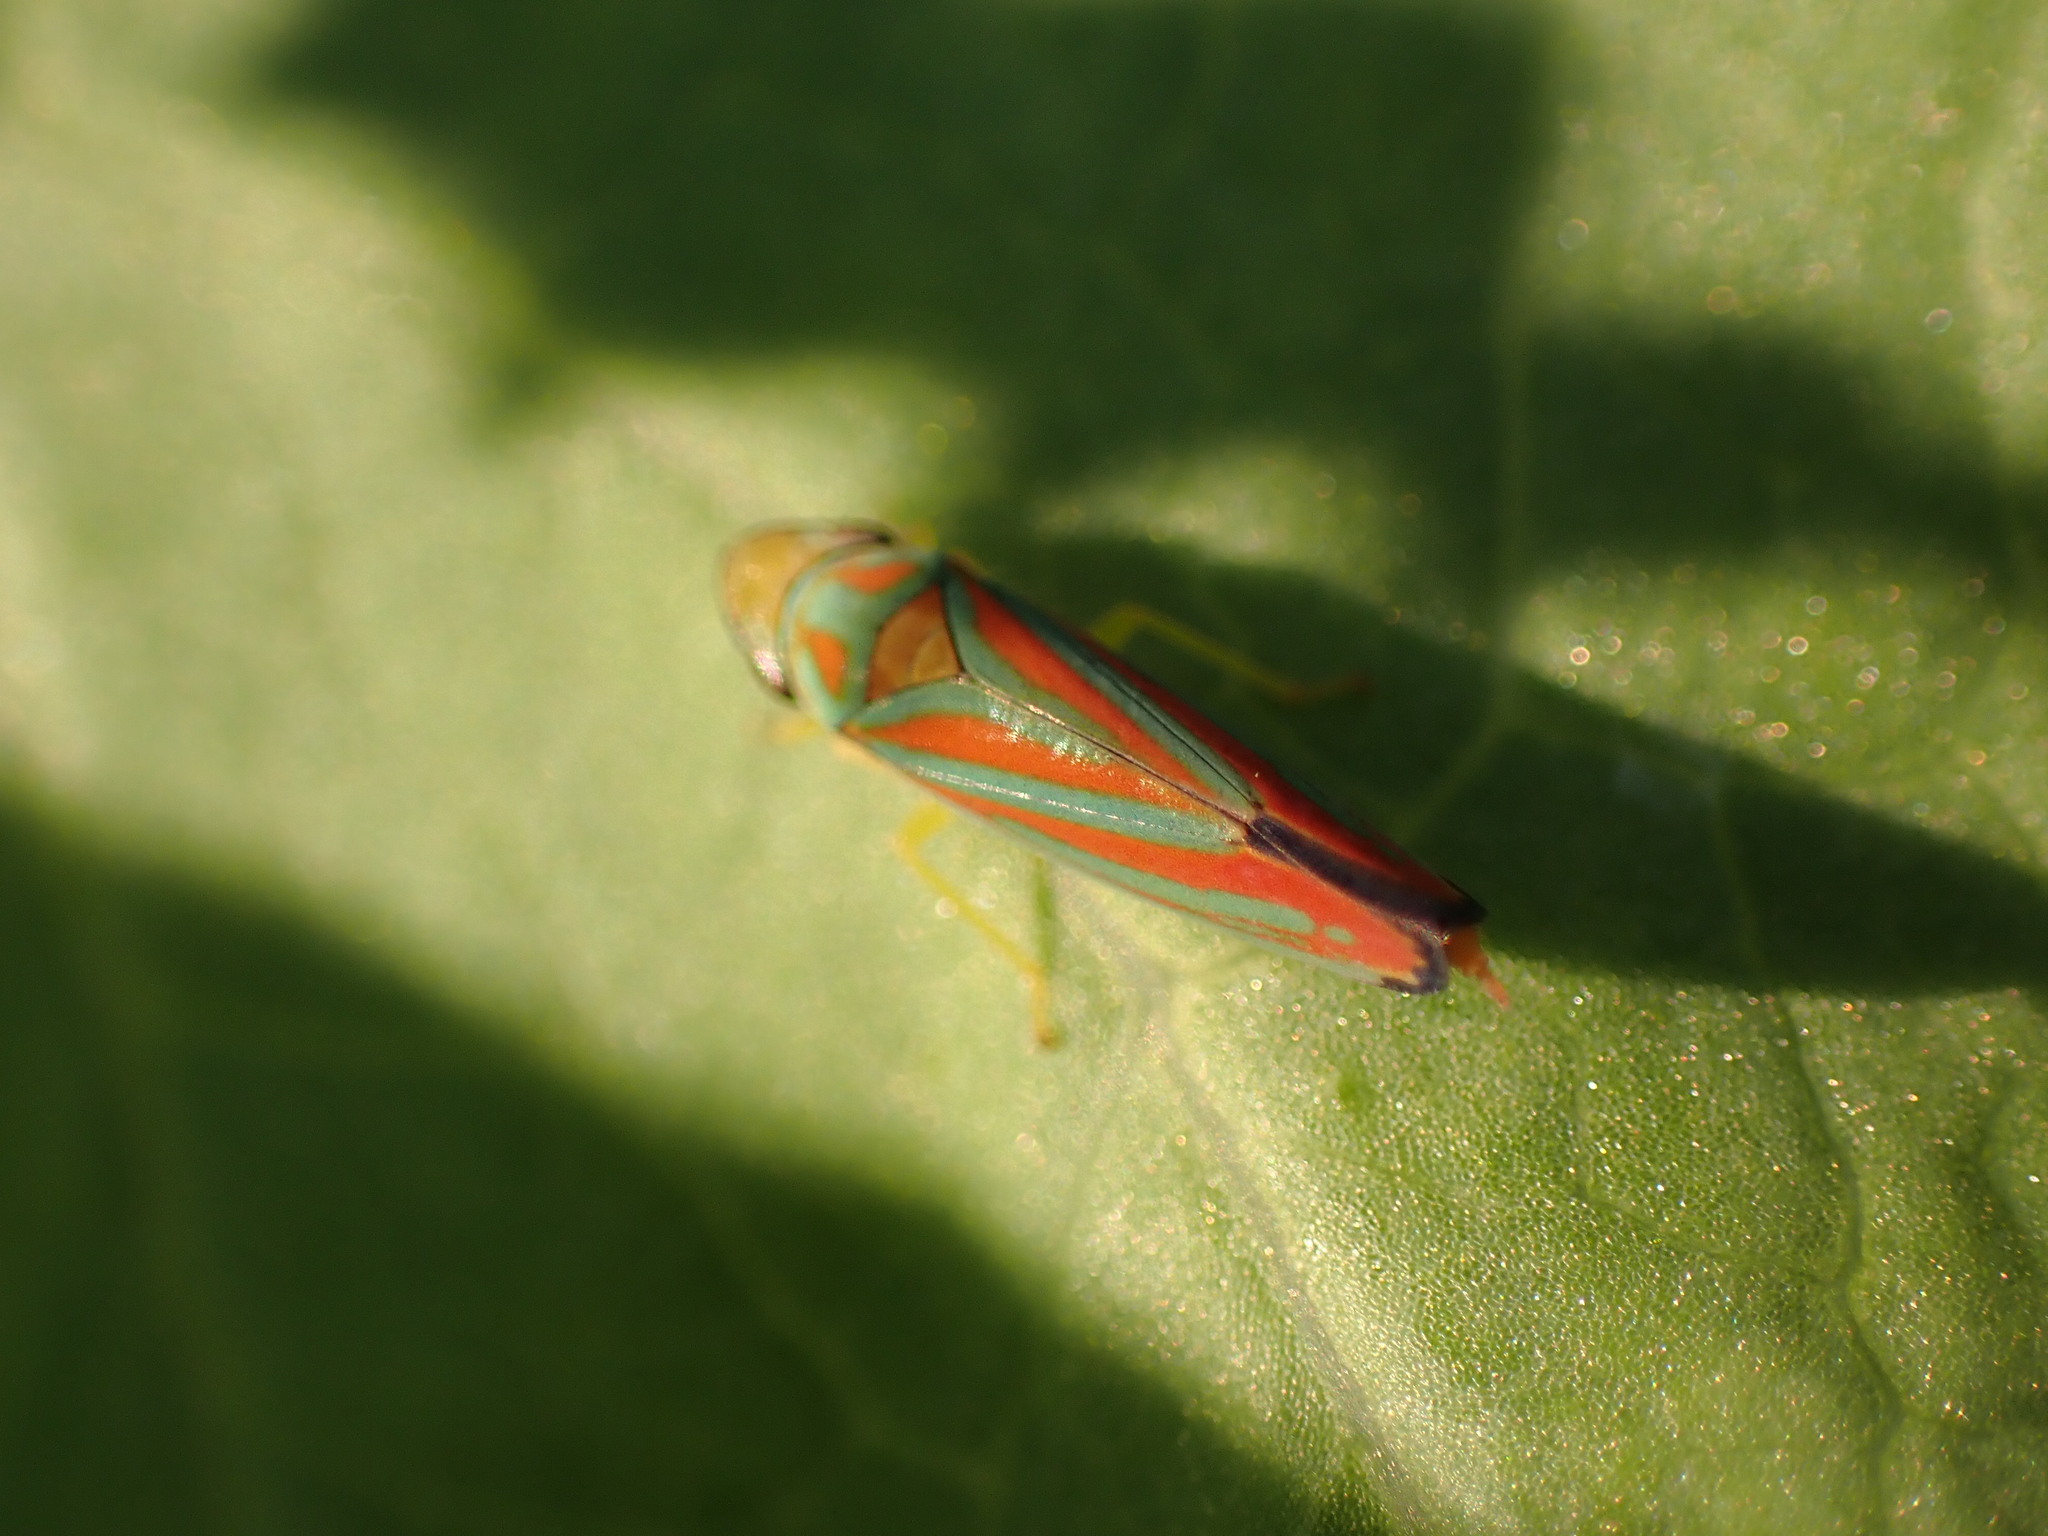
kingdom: Animalia
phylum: Arthropoda
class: Insecta
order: Hemiptera
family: Cicadellidae
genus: Graphocephala
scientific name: Graphocephala coccinea
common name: Candy-striped leafhopper
